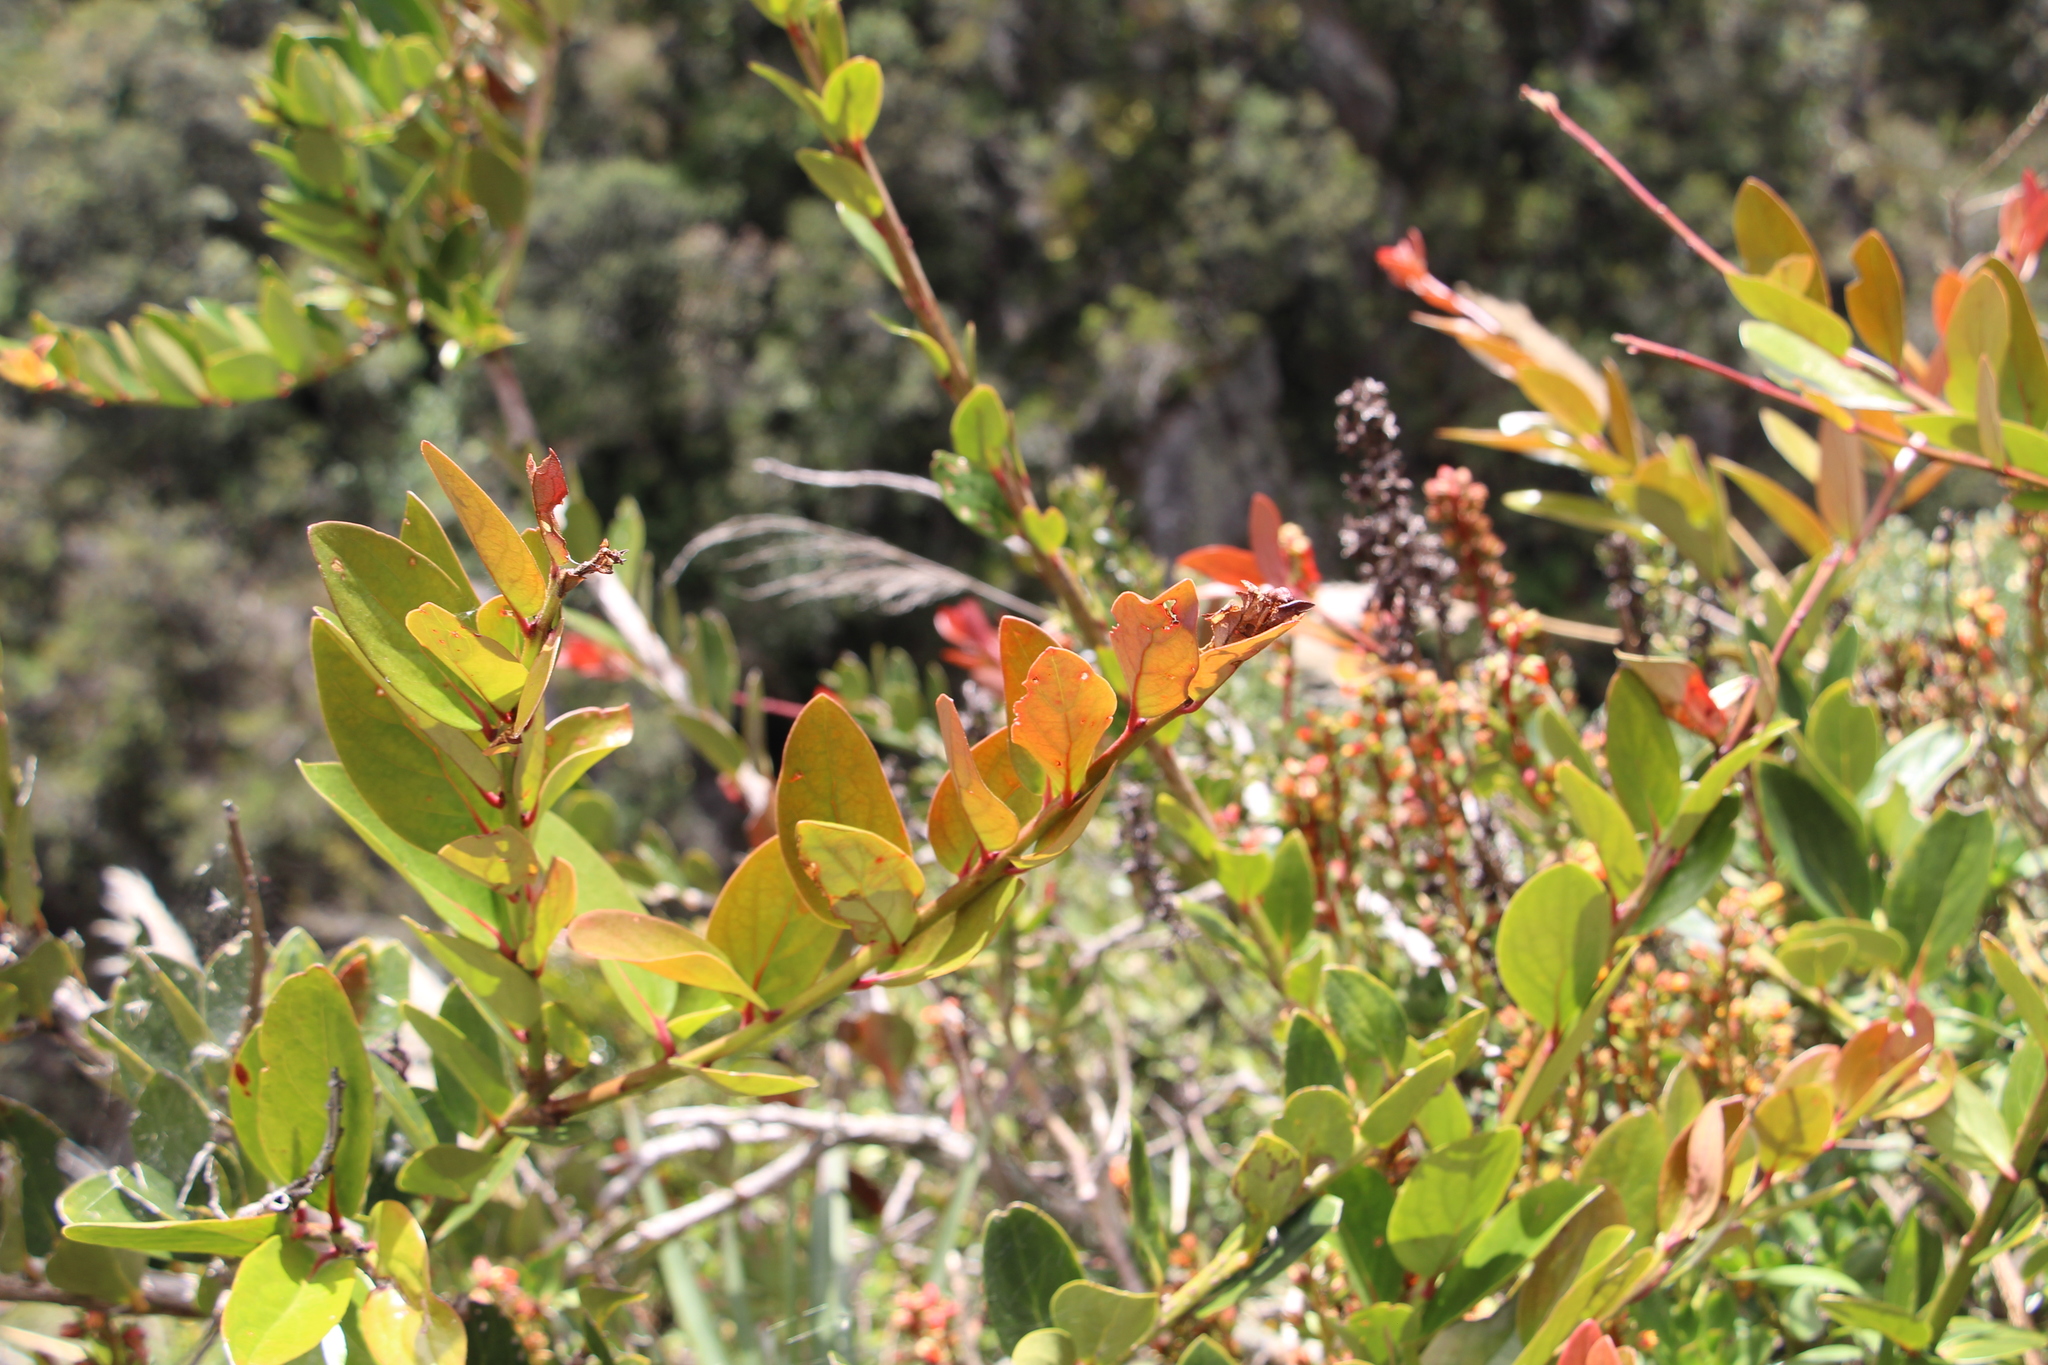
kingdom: Plantae
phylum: Tracheophyta
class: Magnoliopsida
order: Ericales
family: Ericaceae
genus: Macleania
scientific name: Macleania rupestris
